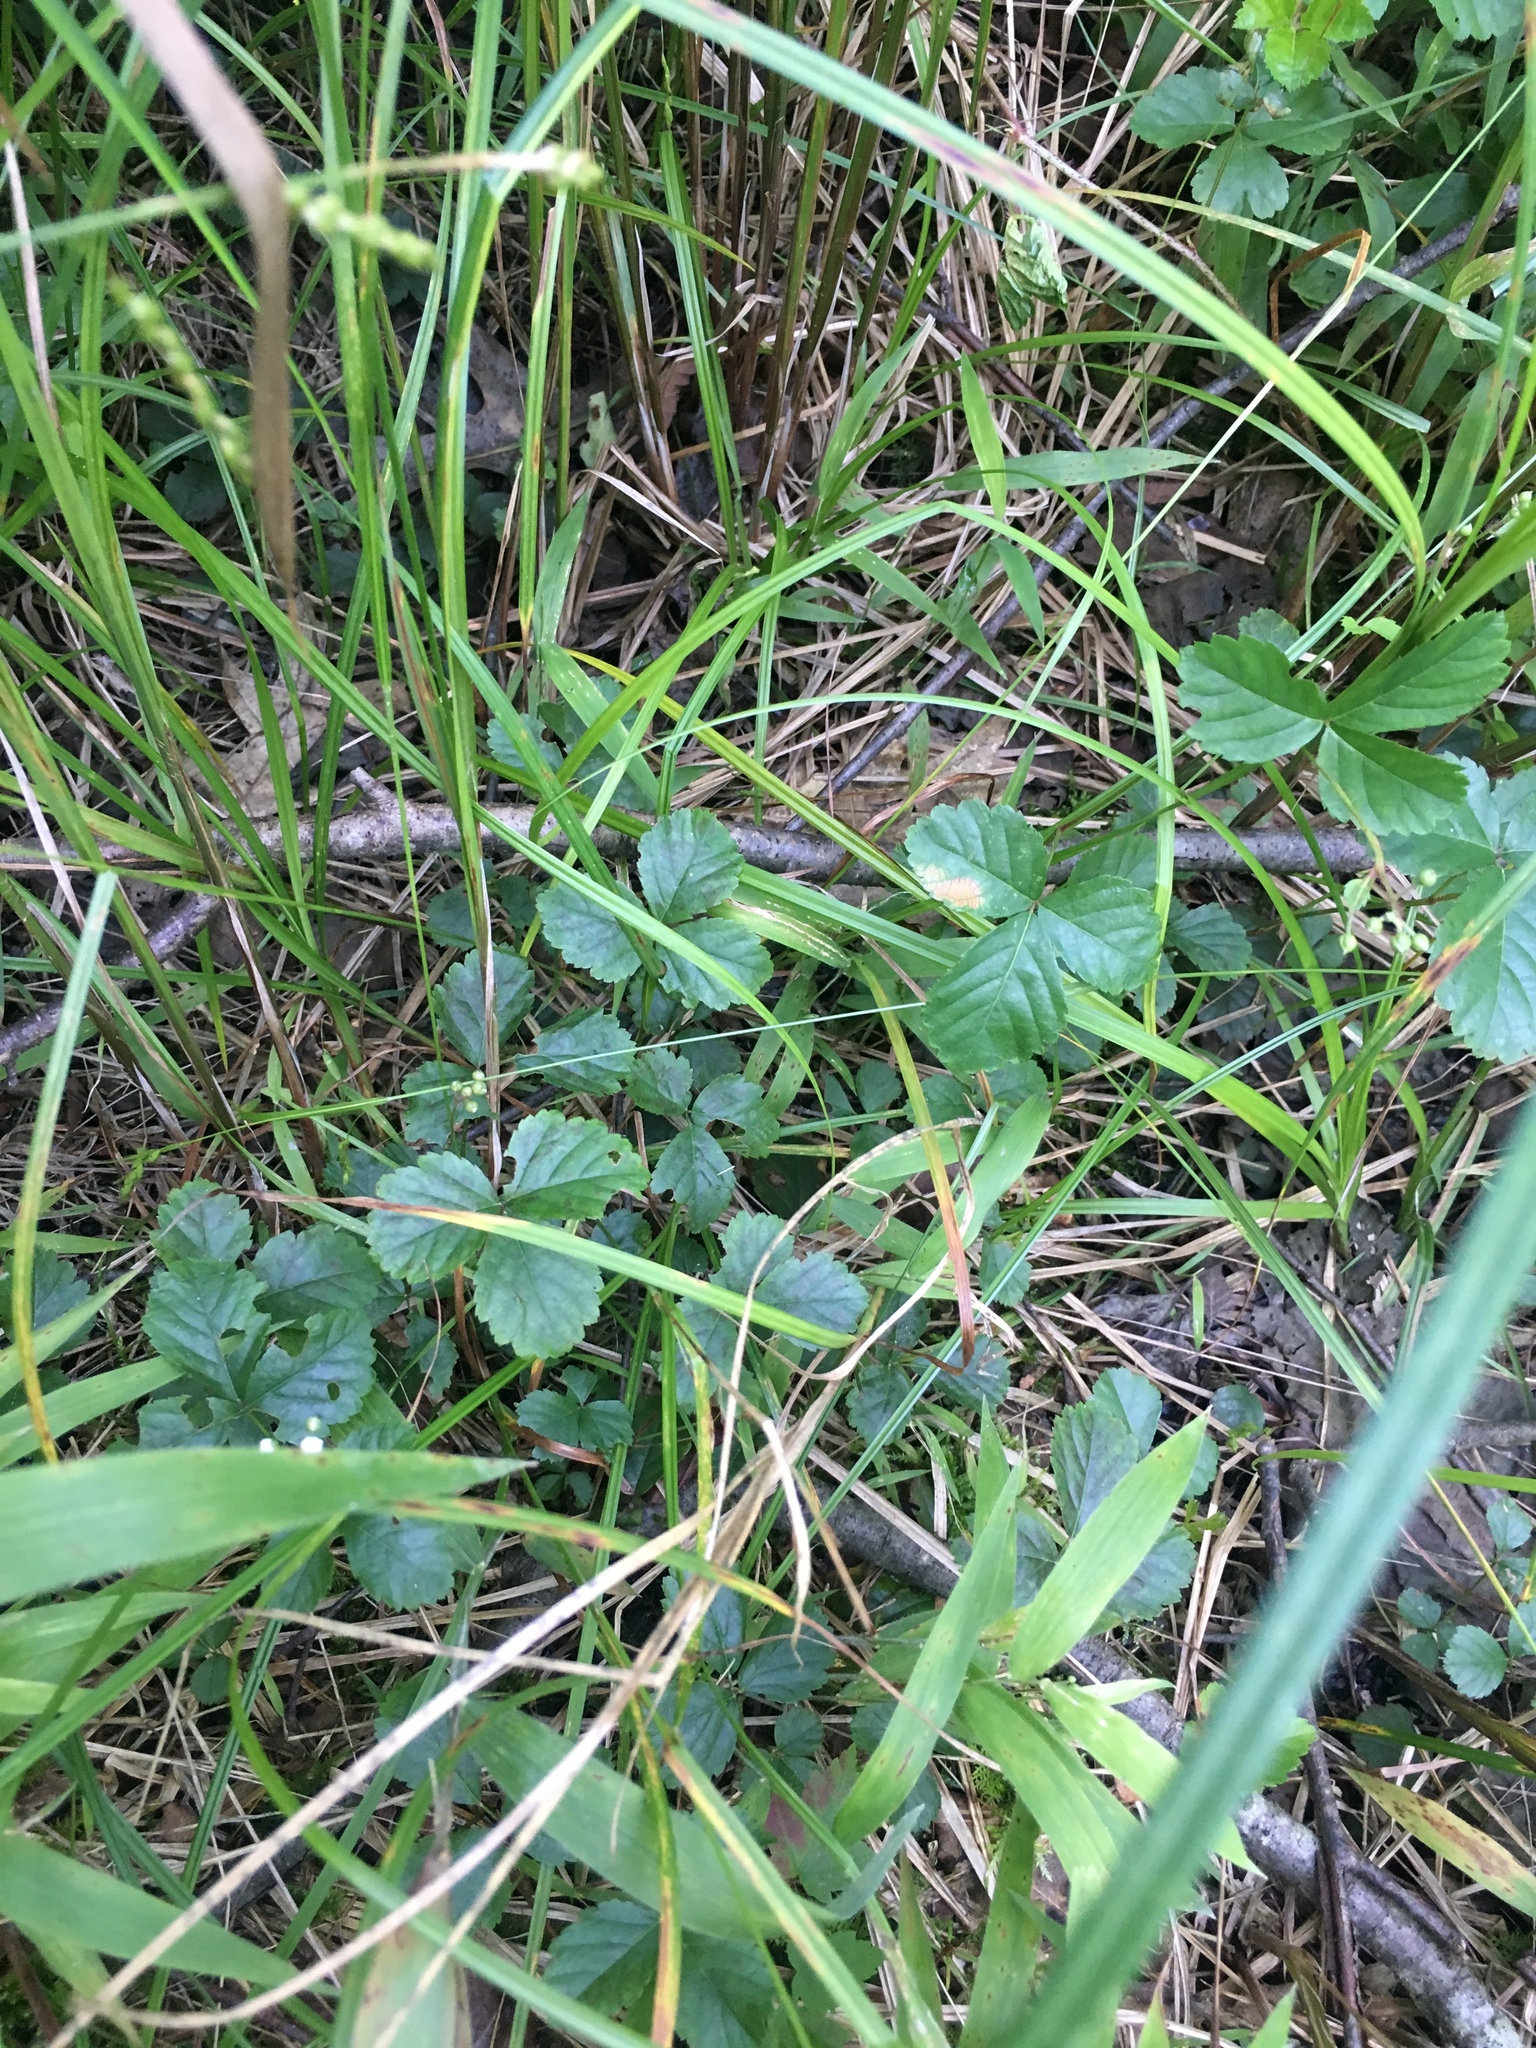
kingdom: Plantae
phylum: Tracheophyta
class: Magnoliopsida
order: Rosales
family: Rosaceae
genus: Rubus
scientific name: Rubus hispidus
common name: Running blackberry
